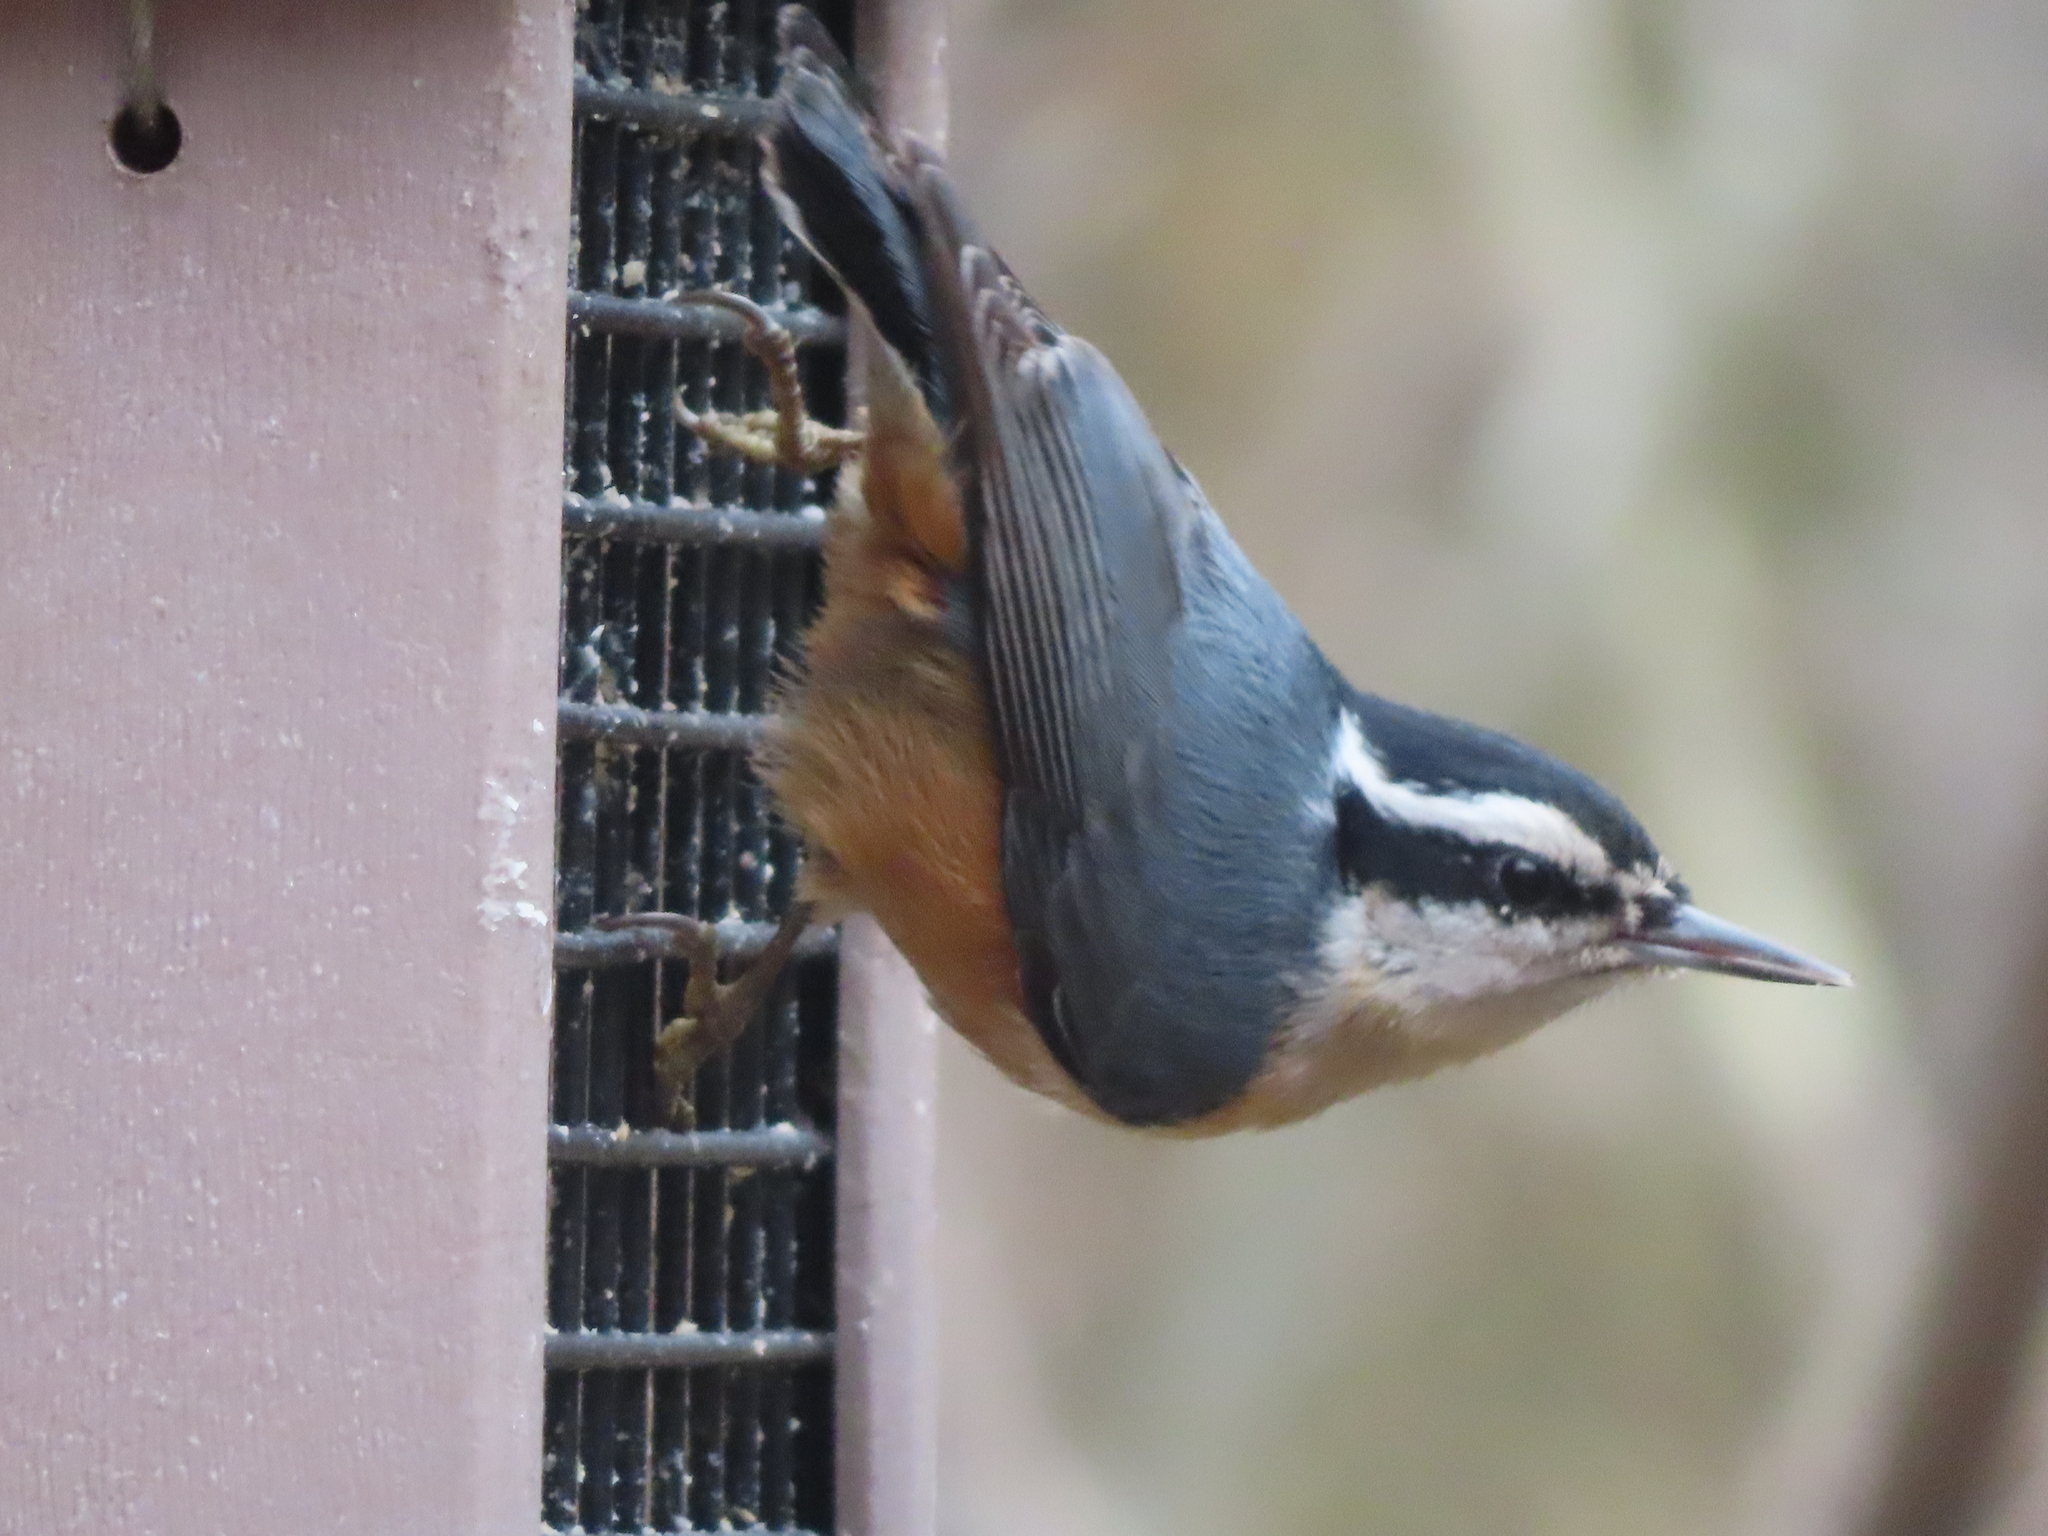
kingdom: Animalia
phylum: Chordata
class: Aves
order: Passeriformes
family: Sittidae
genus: Sitta
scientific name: Sitta canadensis
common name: Red-breasted nuthatch
